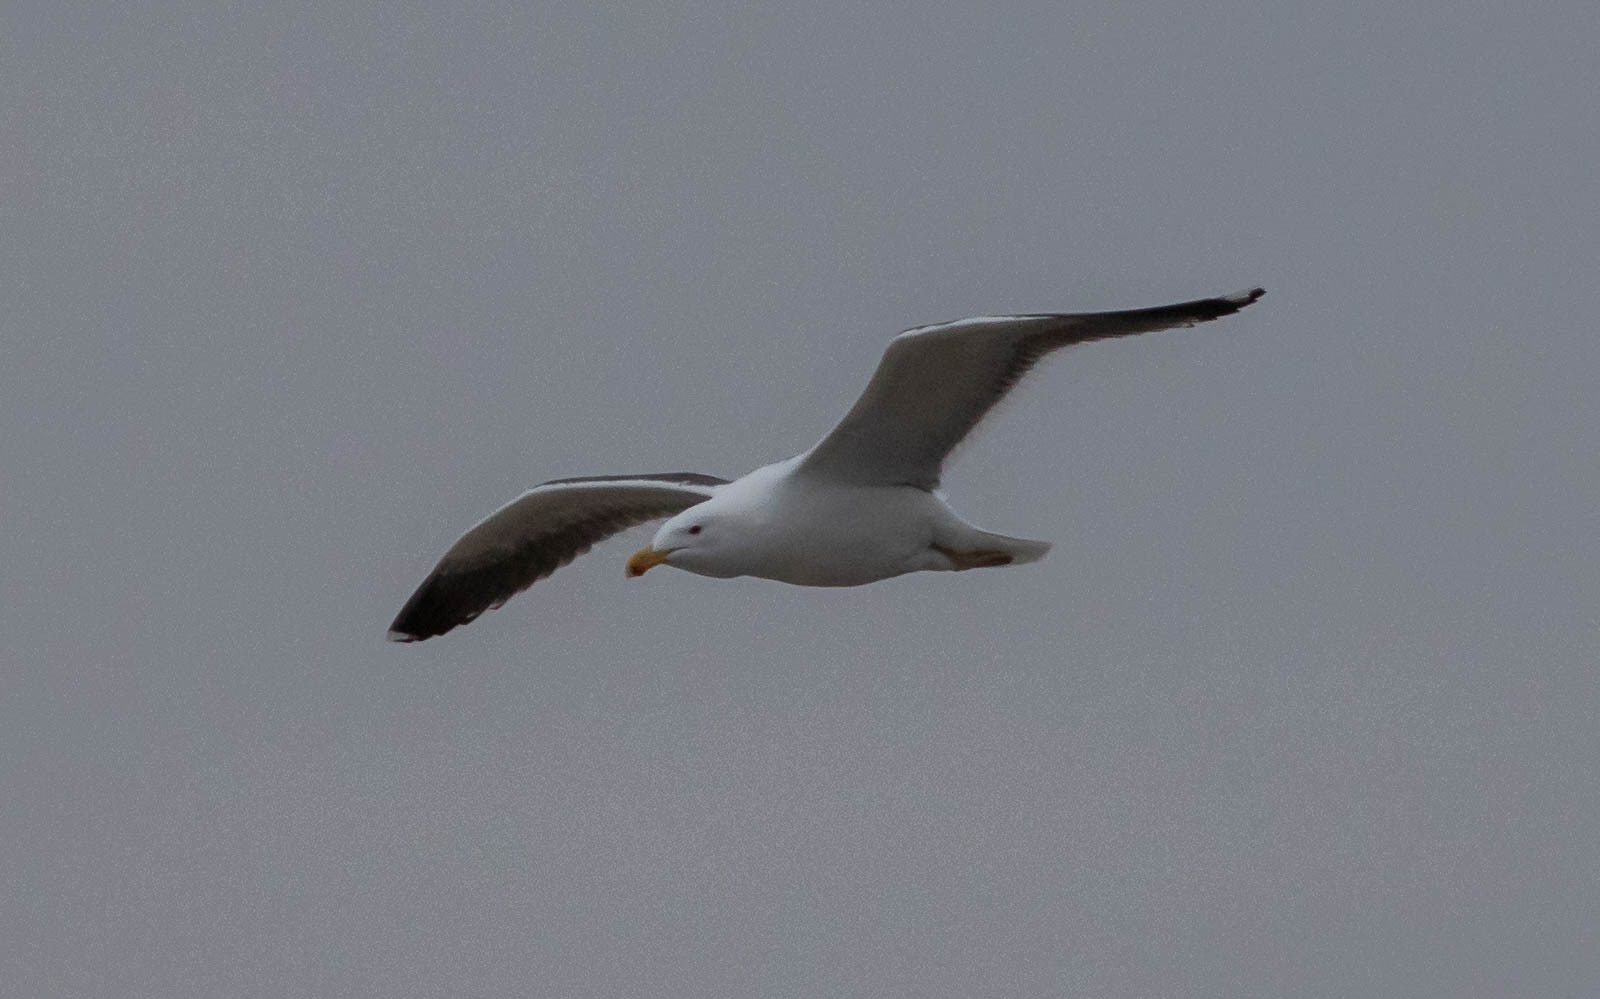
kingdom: Animalia
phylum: Chordata
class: Aves
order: Charadriiformes
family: Laridae
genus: Larus
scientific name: Larus marinus
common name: Great black-backed gull
